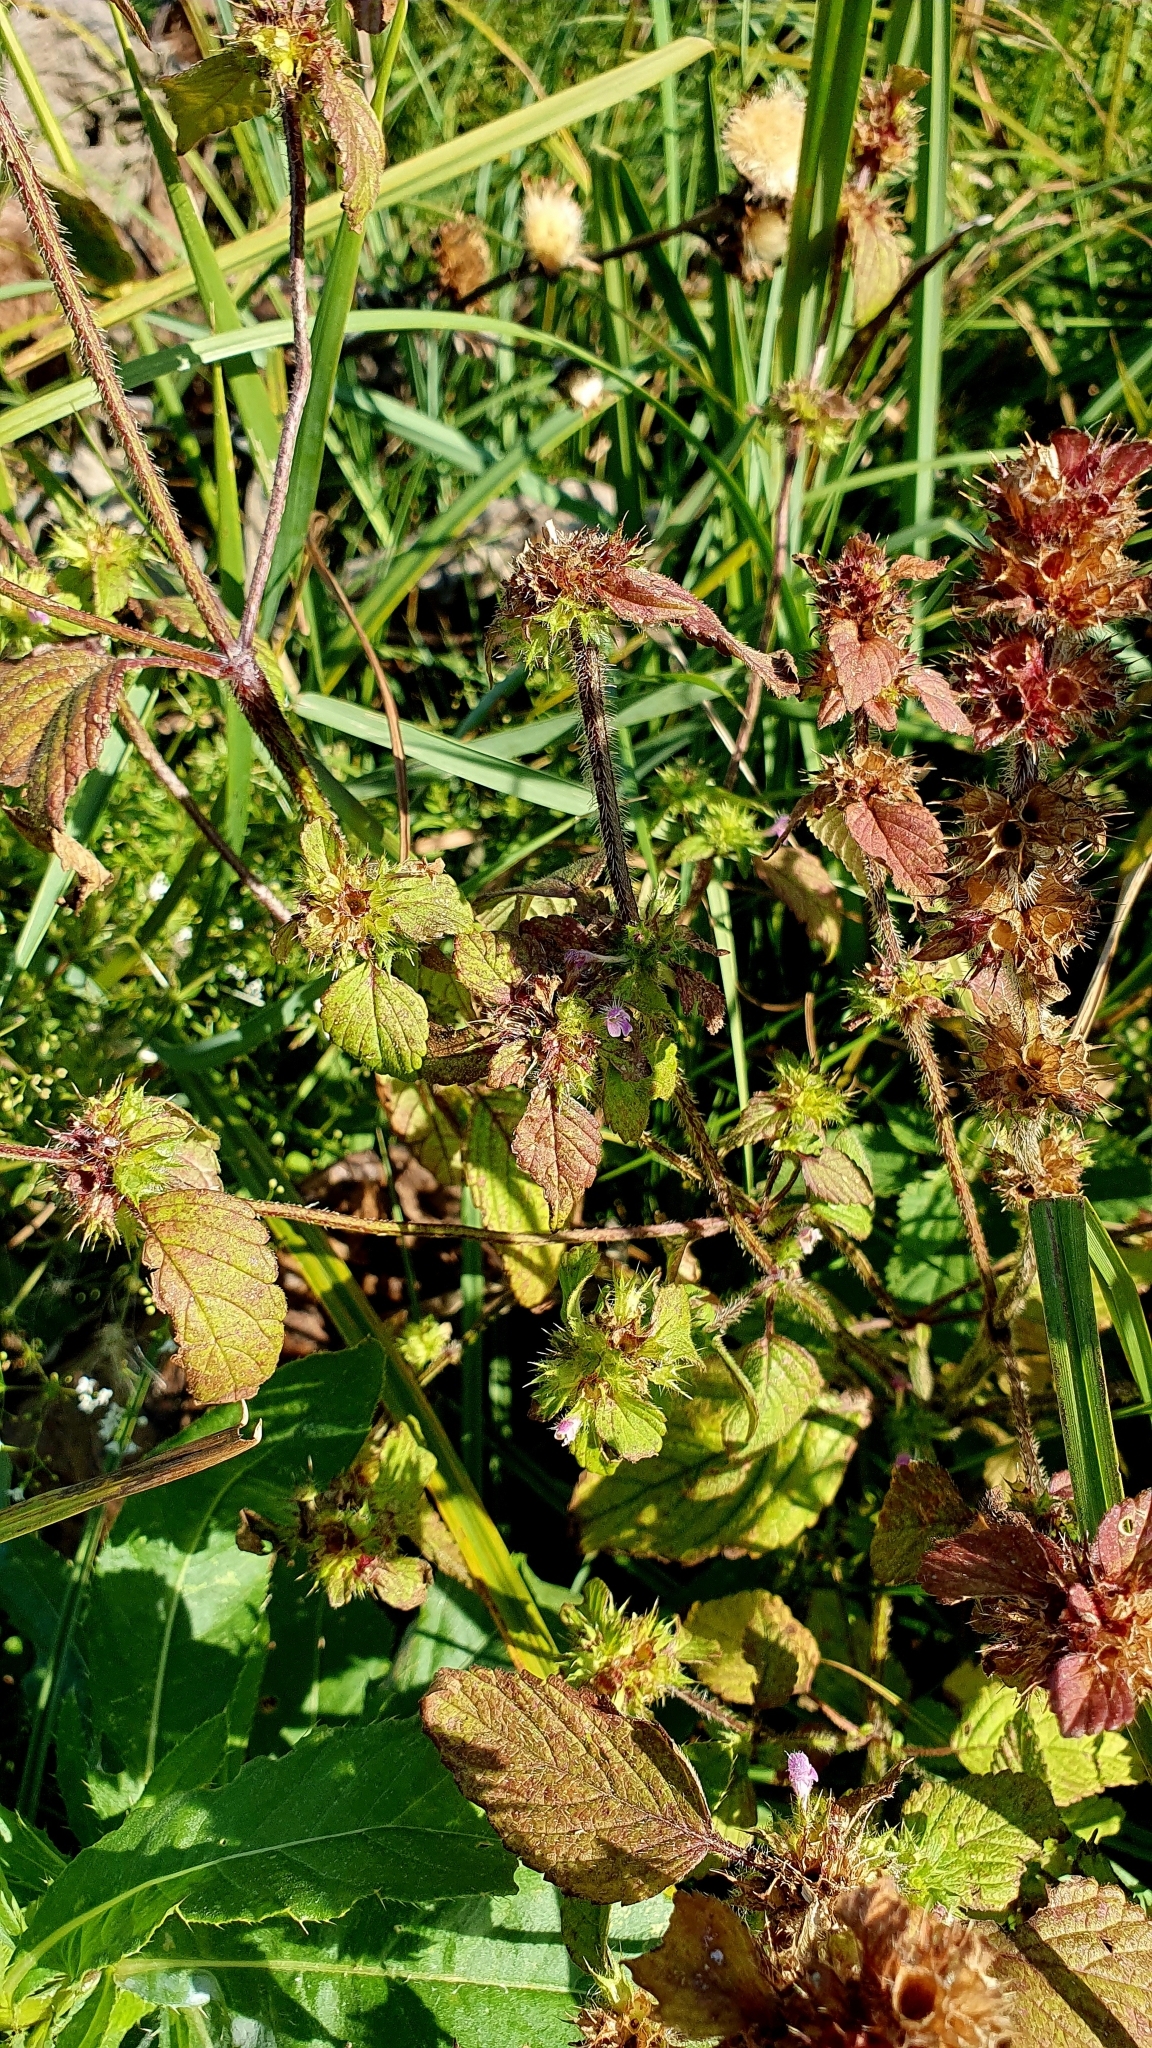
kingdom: Plantae
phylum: Tracheophyta
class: Magnoliopsida
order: Lamiales
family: Lamiaceae
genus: Galeopsis
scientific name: Galeopsis bifida
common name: Bifid hemp-nettle
